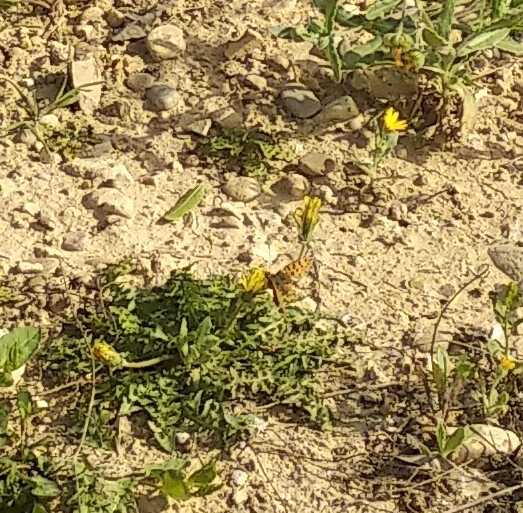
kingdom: Animalia
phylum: Arthropoda
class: Insecta
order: Lepidoptera
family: Nymphalidae
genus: Issoria
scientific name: Issoria lathonia
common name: Queen of spain fritillary
